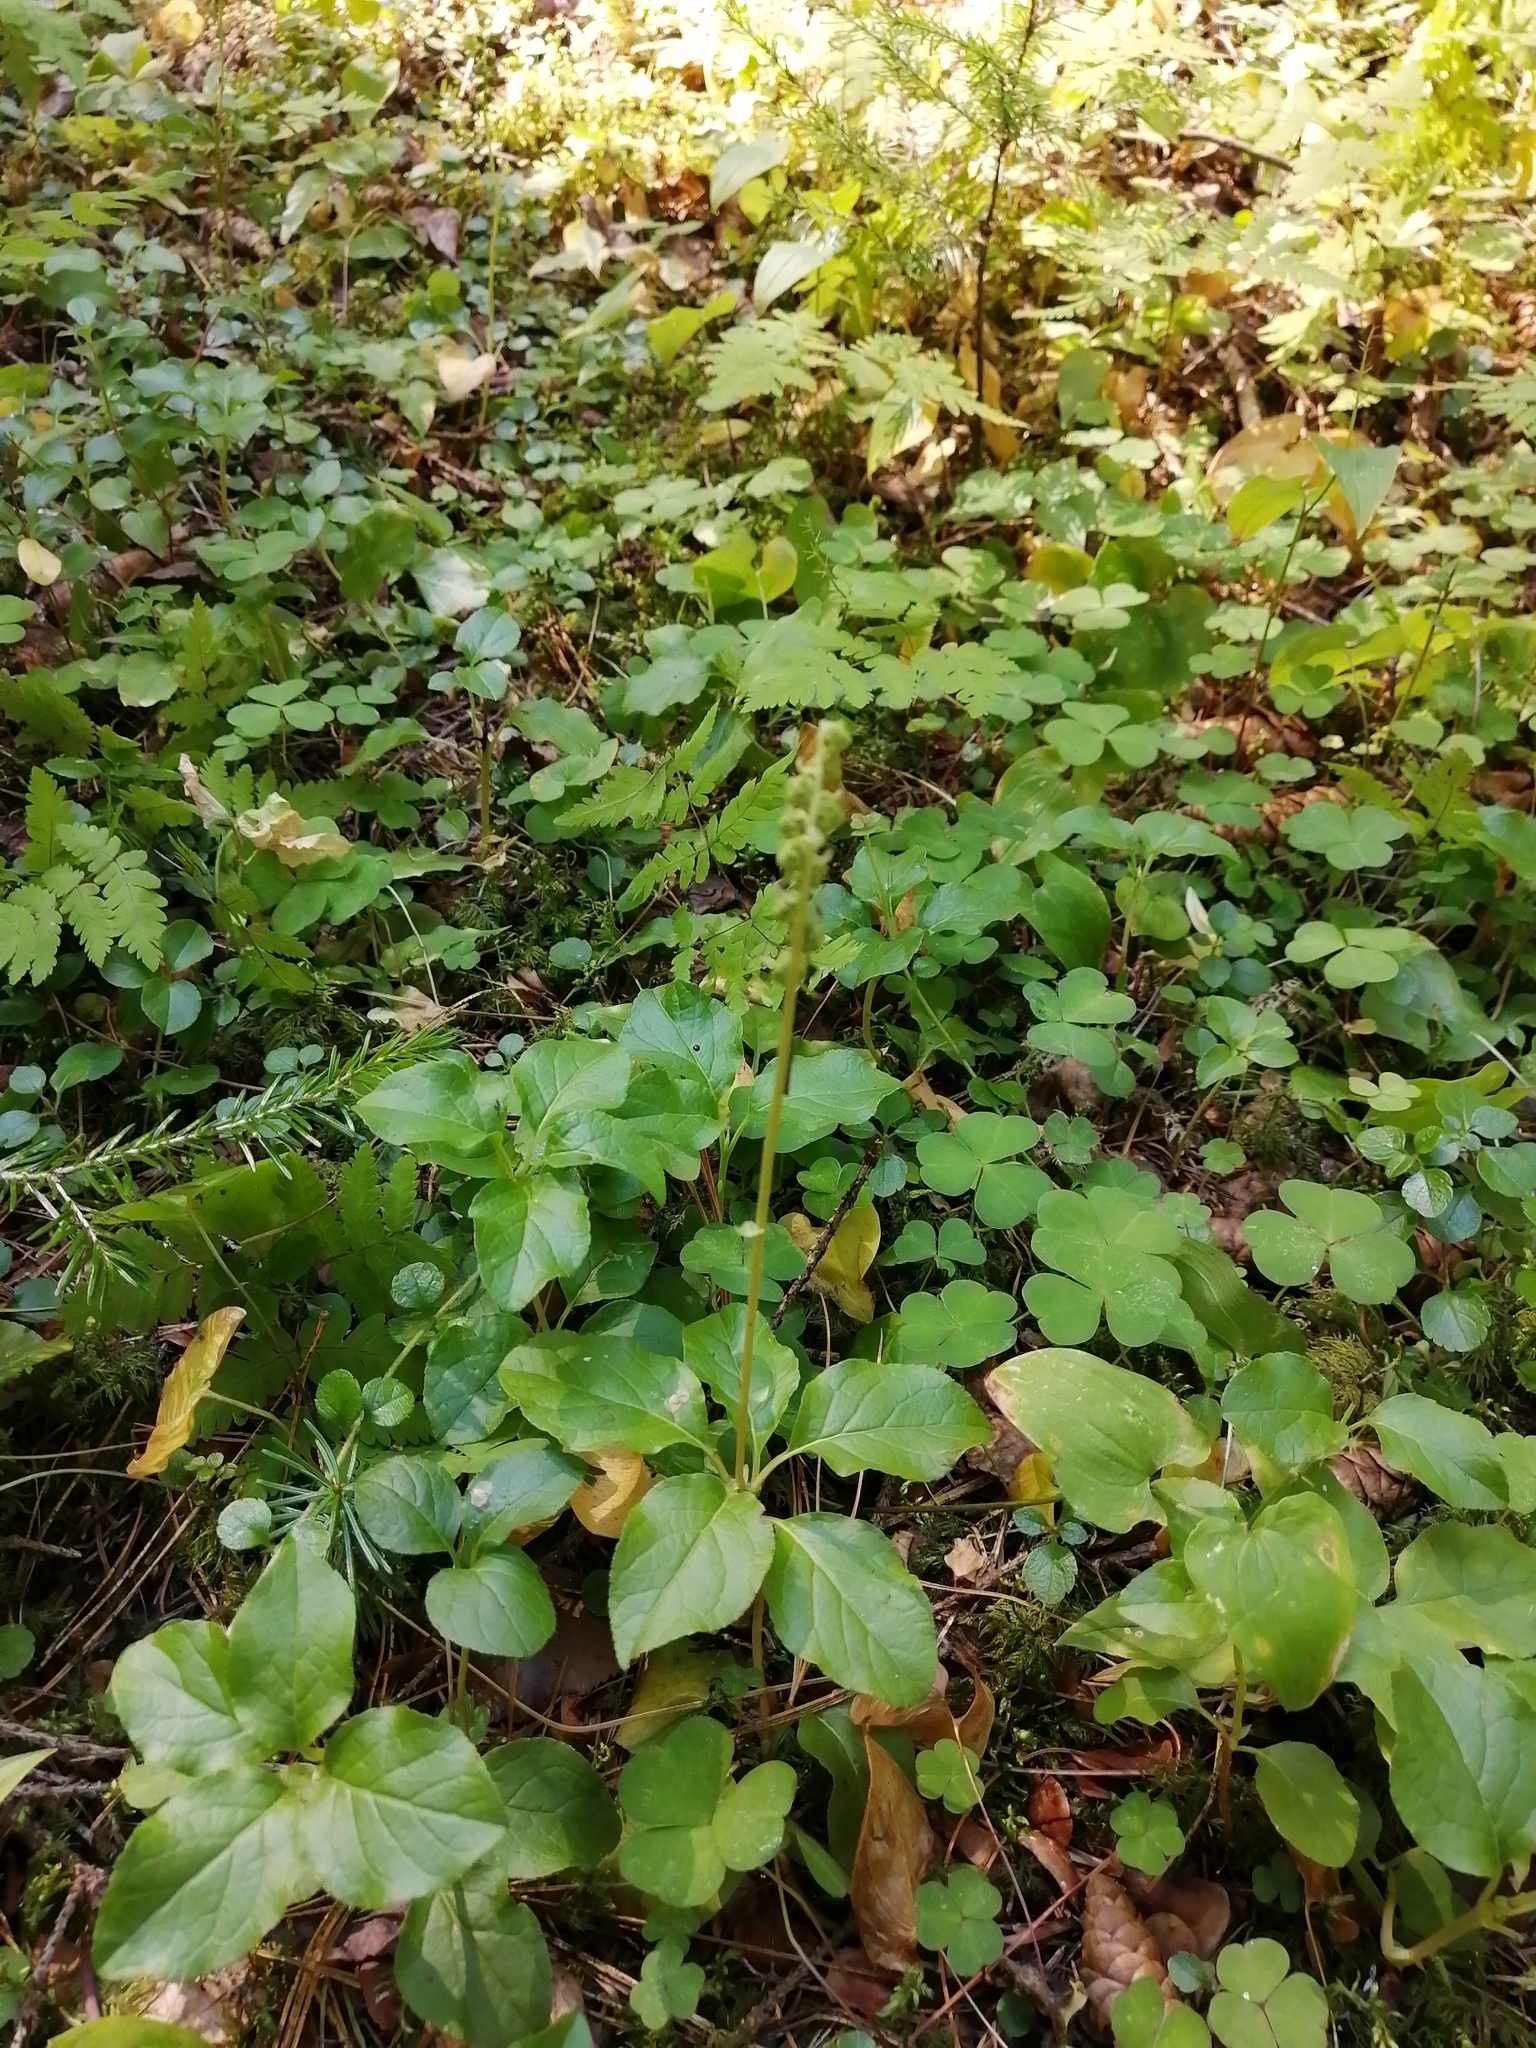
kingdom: Plantae
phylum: Tracheophyta
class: Magnoliopsida
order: Ericales
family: Ericaceae
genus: Orthilia
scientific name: Orthilia secunda
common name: One-sided orthilia
